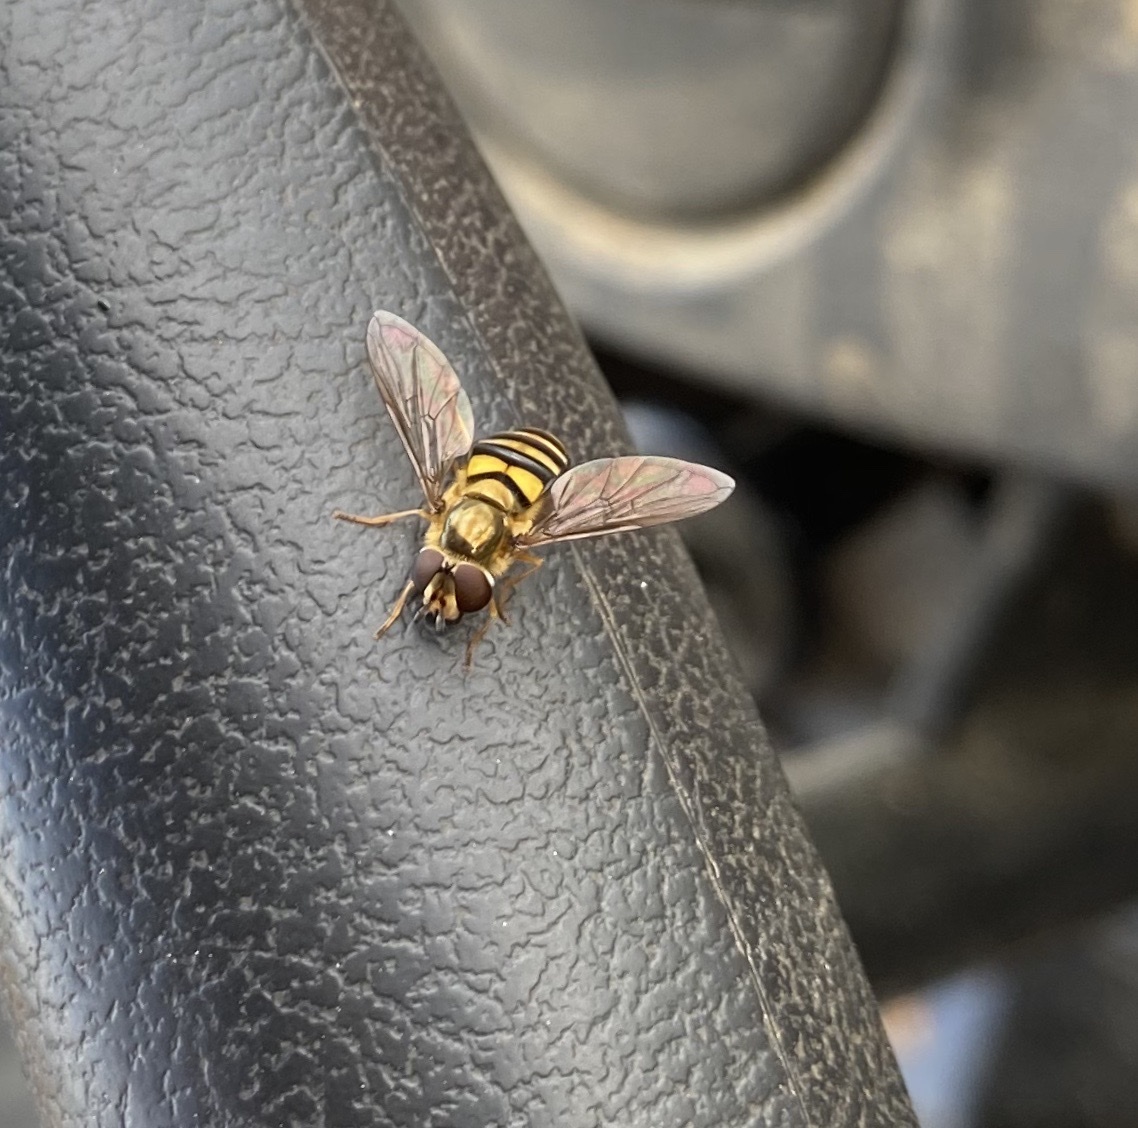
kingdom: Animalia
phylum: Arthropoda
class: Insecta
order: Diptera
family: Syrphidae
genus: Eupeodes
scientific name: Eupeodes
